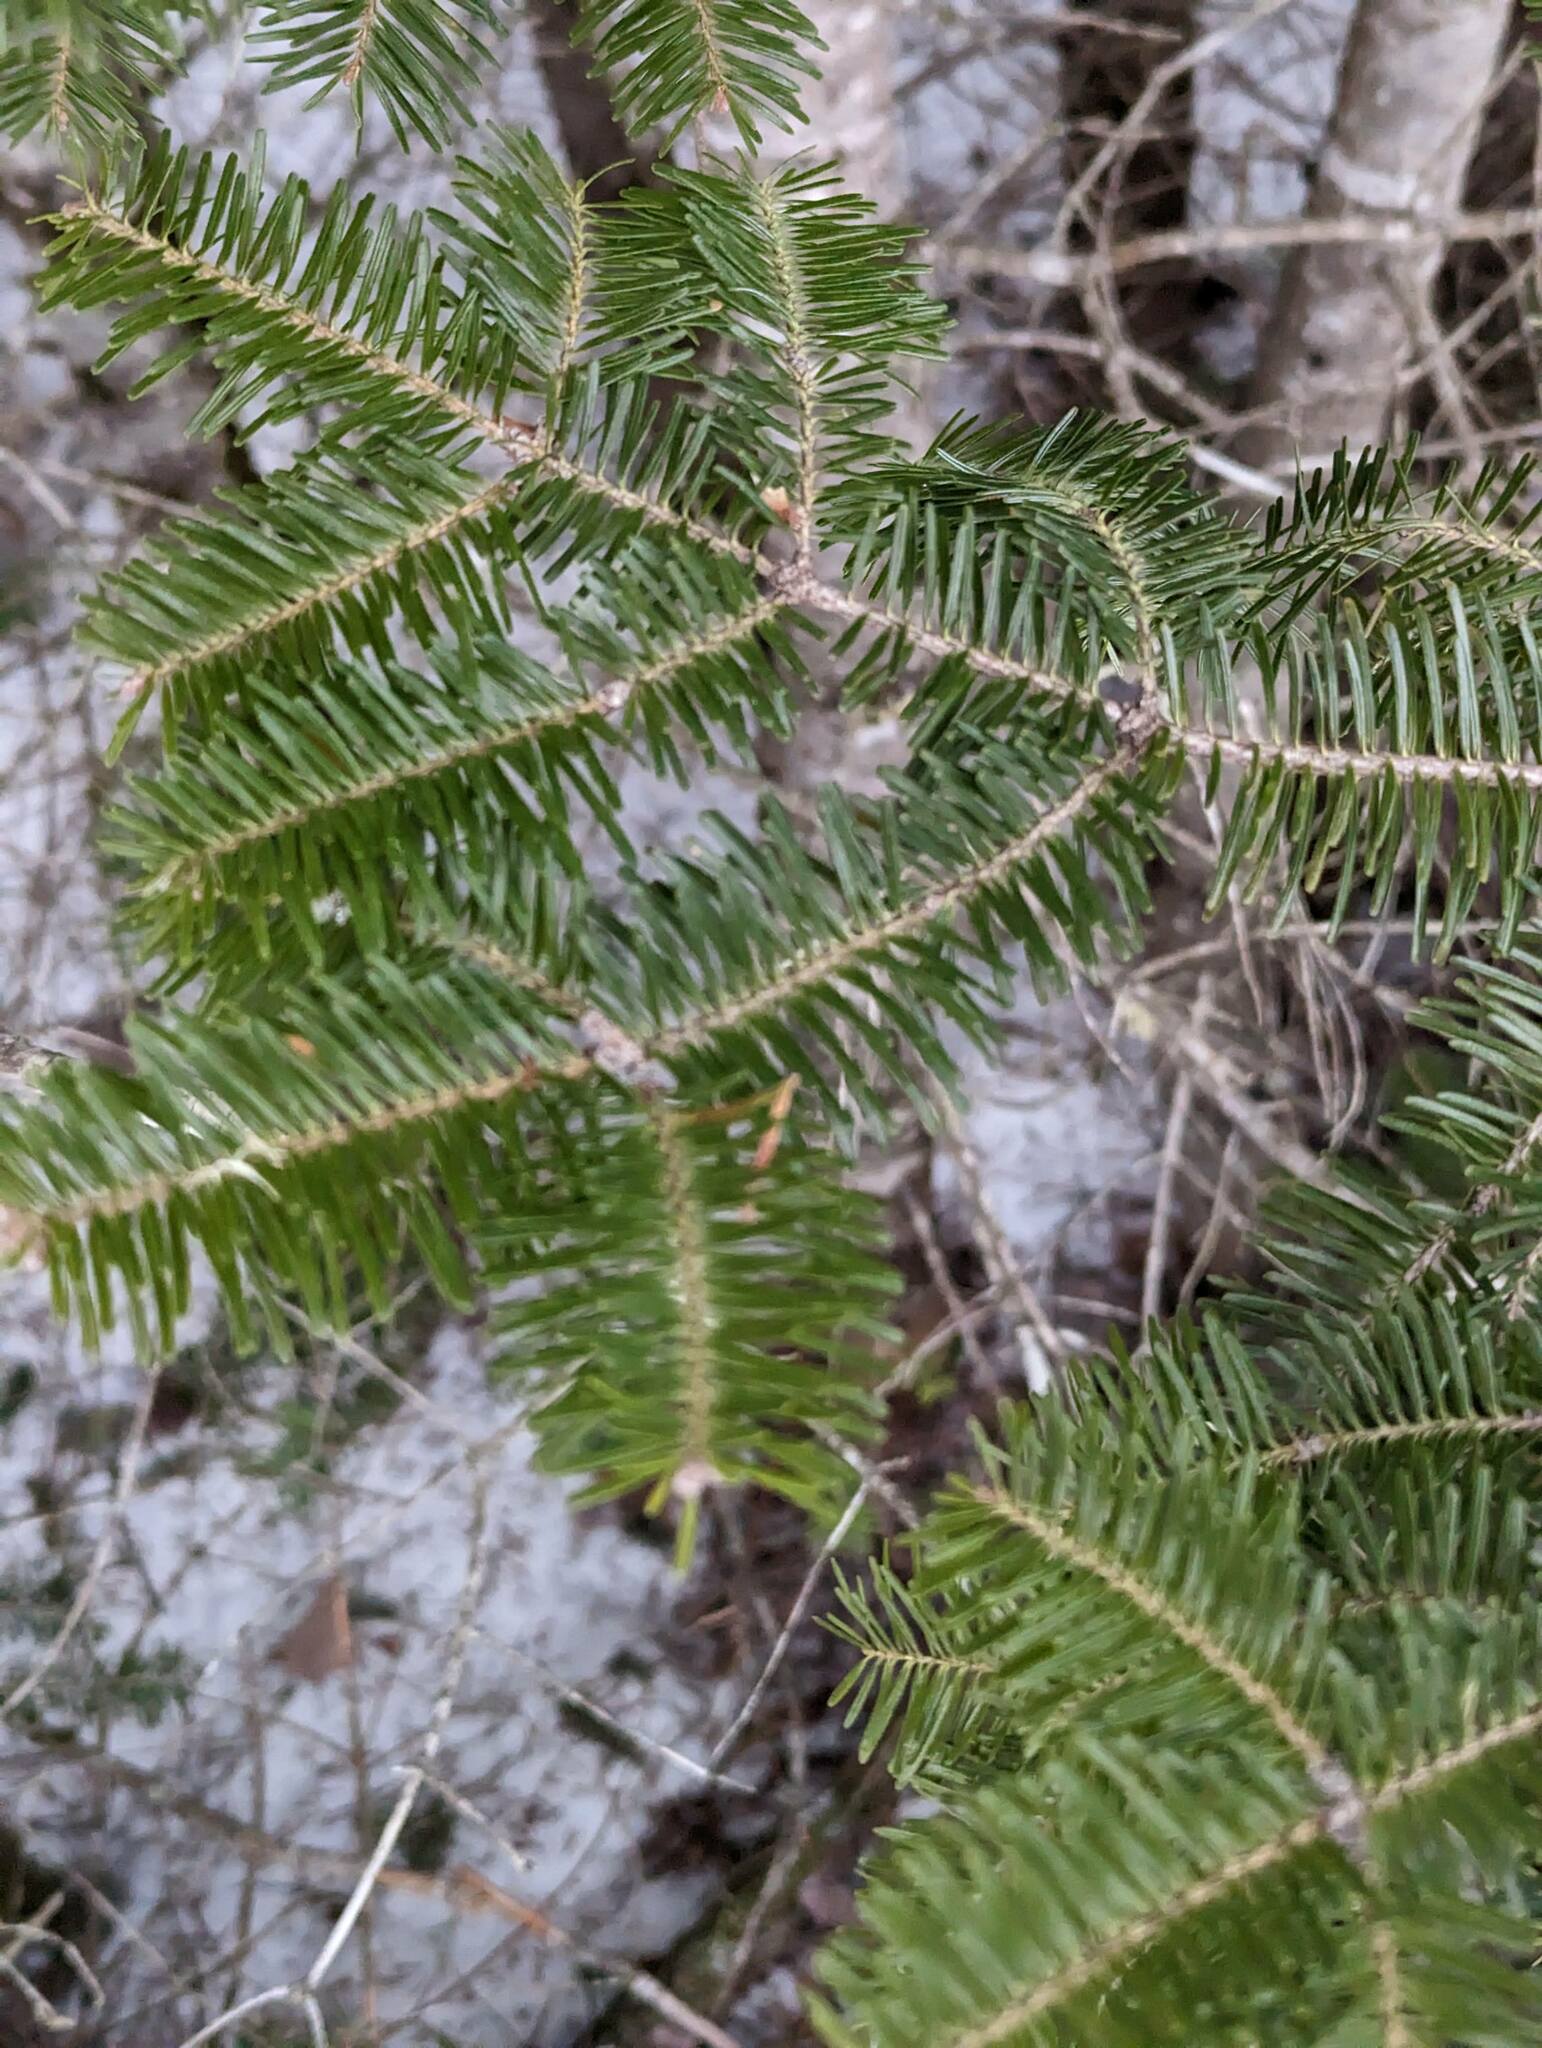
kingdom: Plantae
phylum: Tracheophyta
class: Pinopsida
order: Pinales
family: Pinaceae
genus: Abies
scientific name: Abies balsamea
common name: Balsam fir
